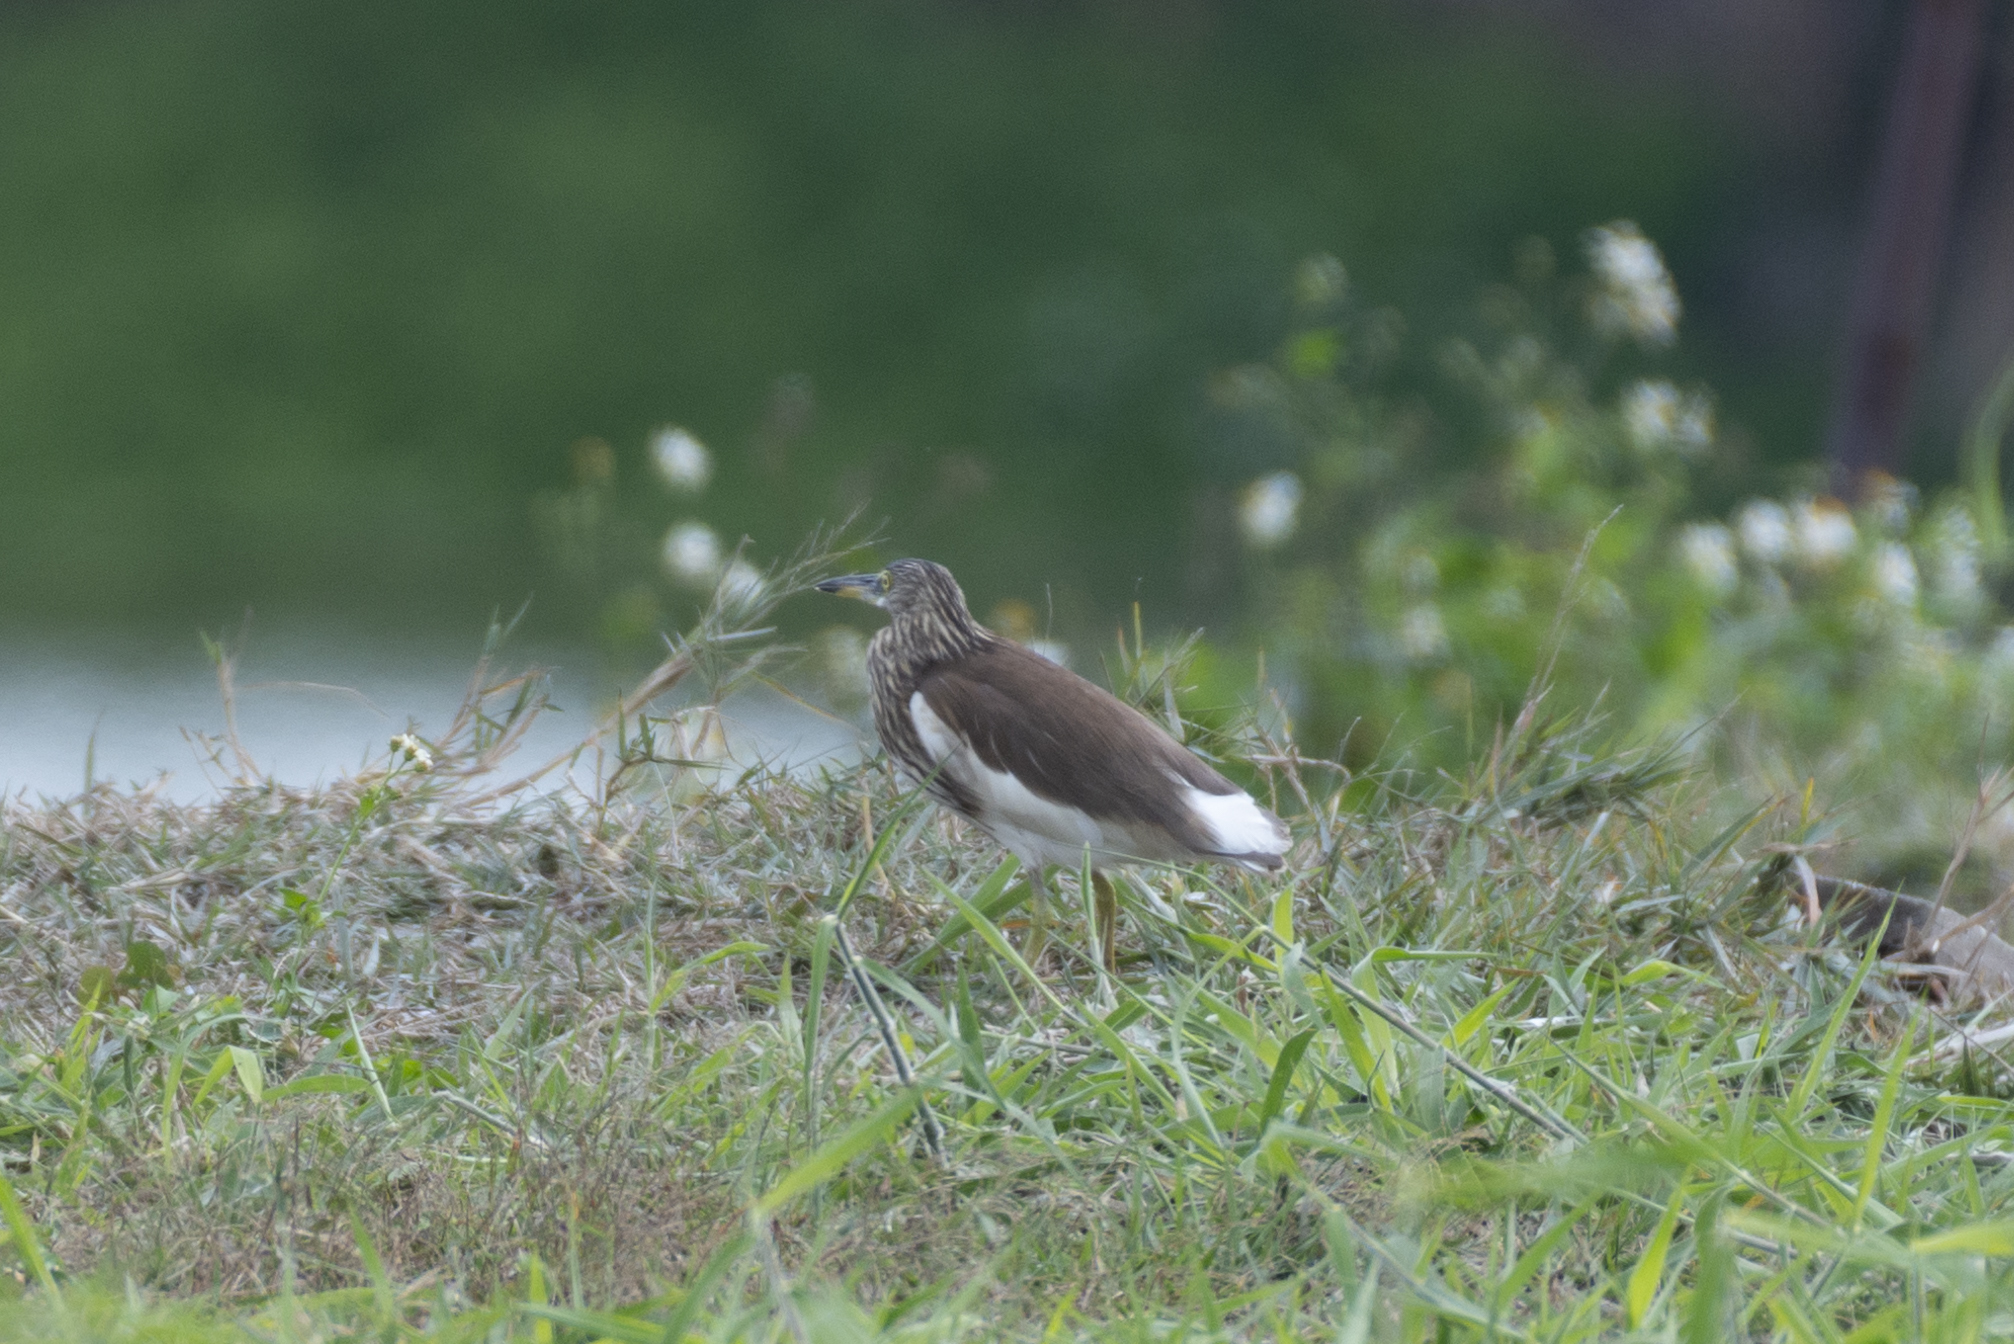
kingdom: Animalia
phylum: Chordata
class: Aves
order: Pelecaniformes
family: Ardeidae
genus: Ardeola
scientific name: Ardeola bacchus
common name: Chinese pond heron
